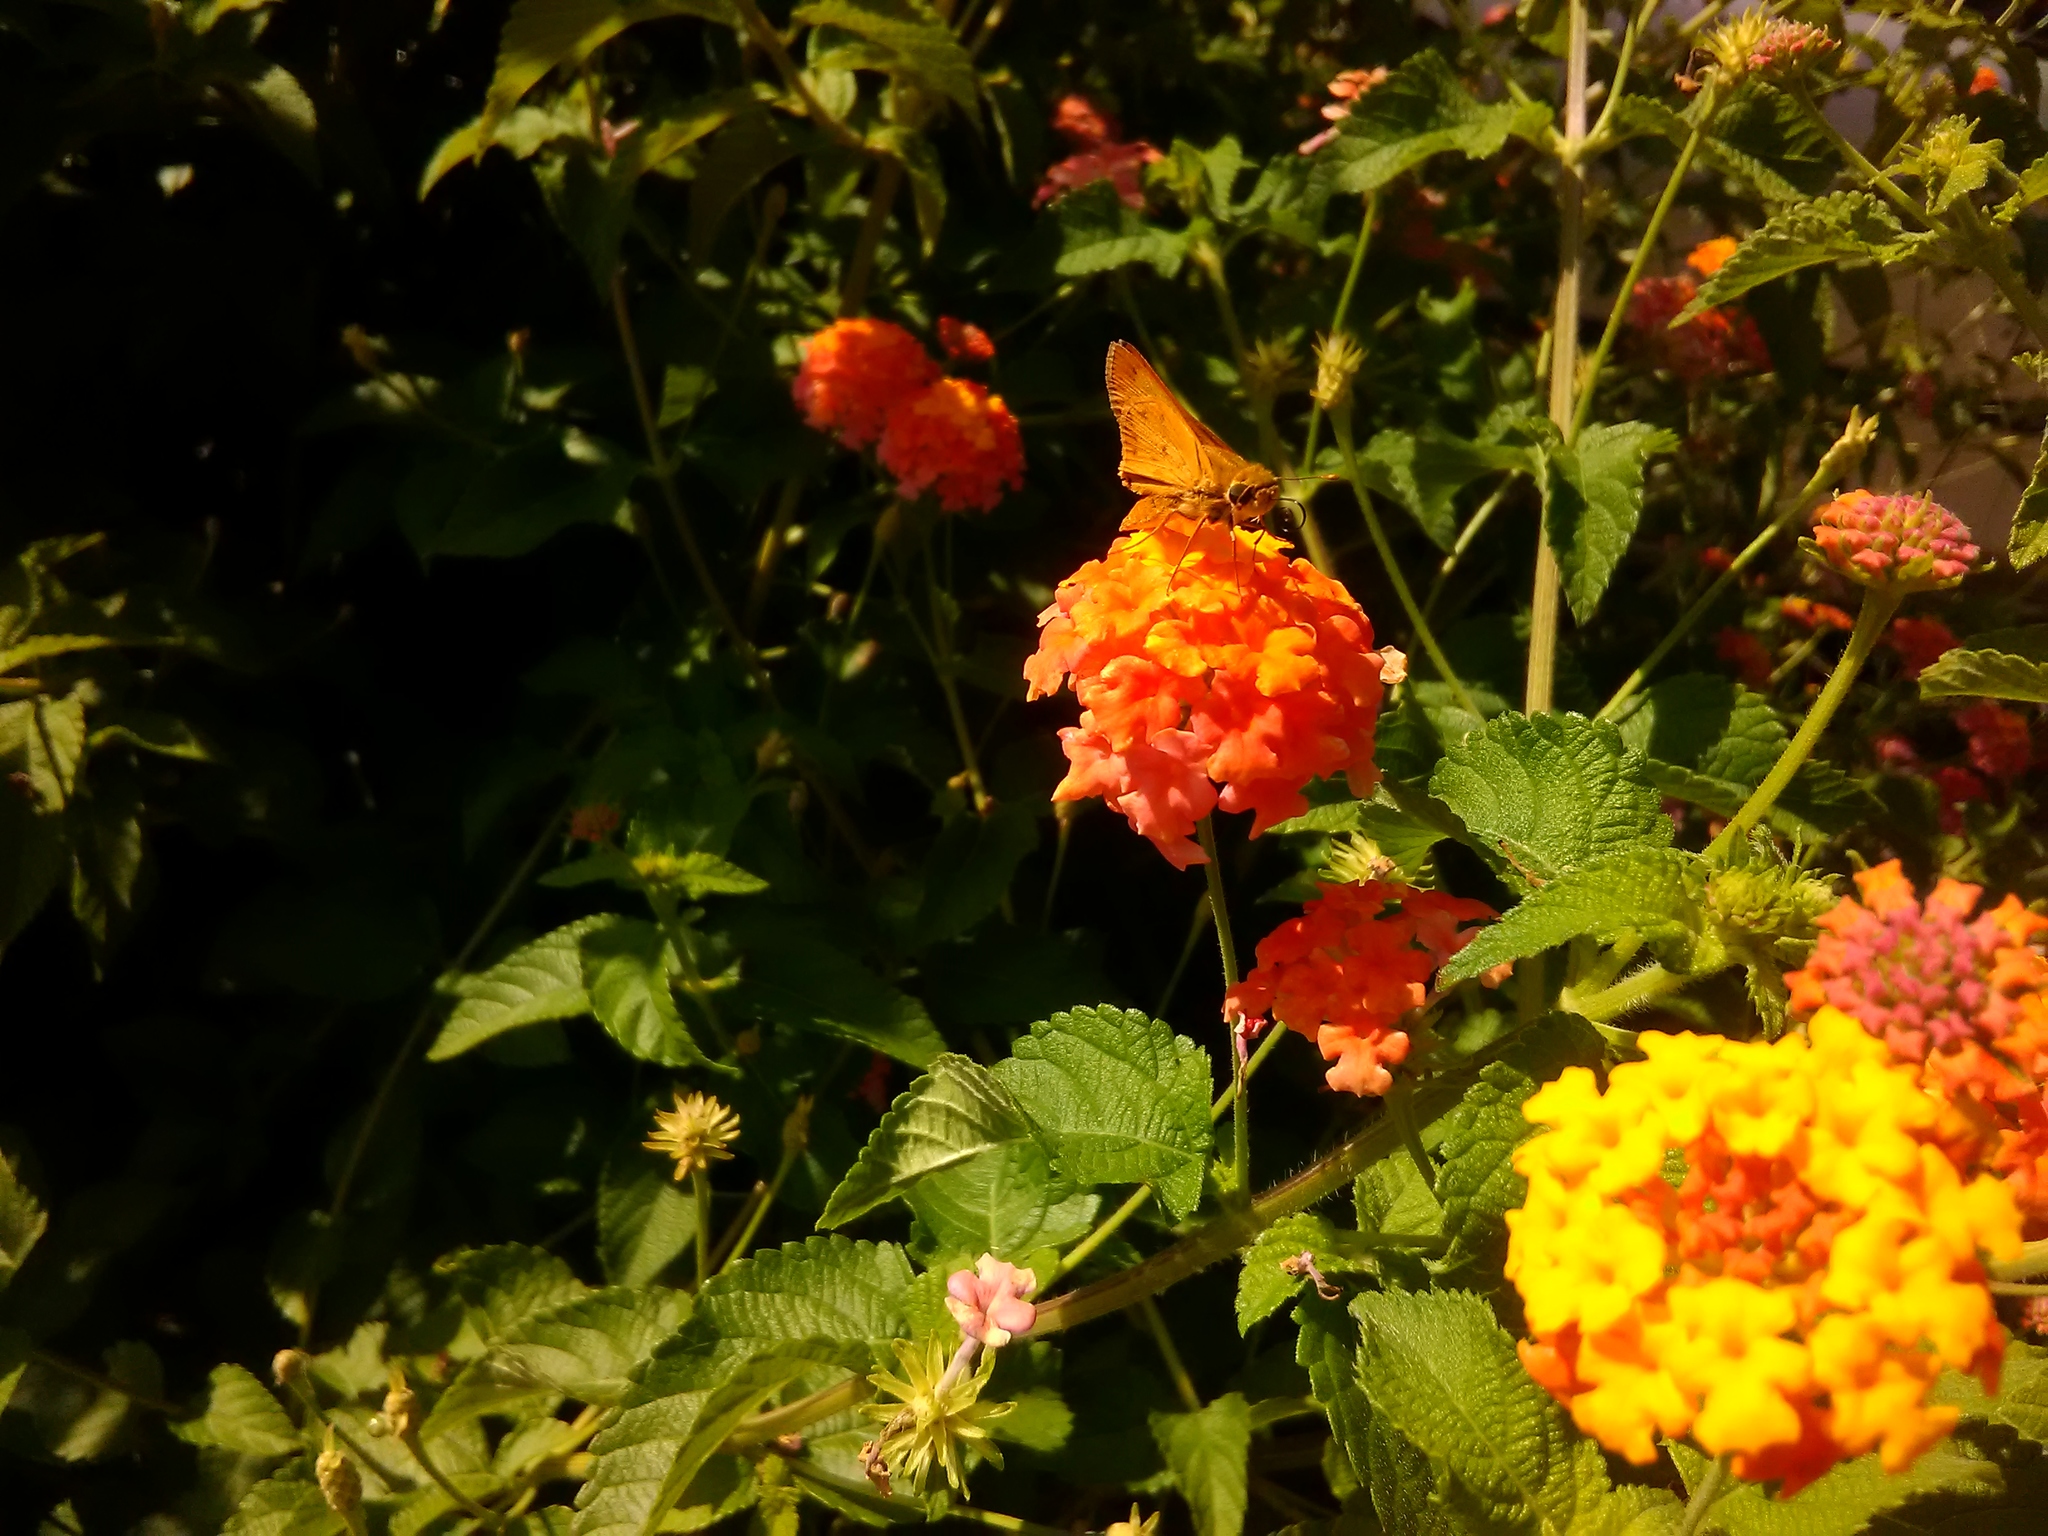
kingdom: Animalia
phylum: Arthropoda
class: Insecta
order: Lepidoptera
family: Hesperiidae
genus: Hylephila
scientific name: Hylephila phyleus
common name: Fiery skipper
